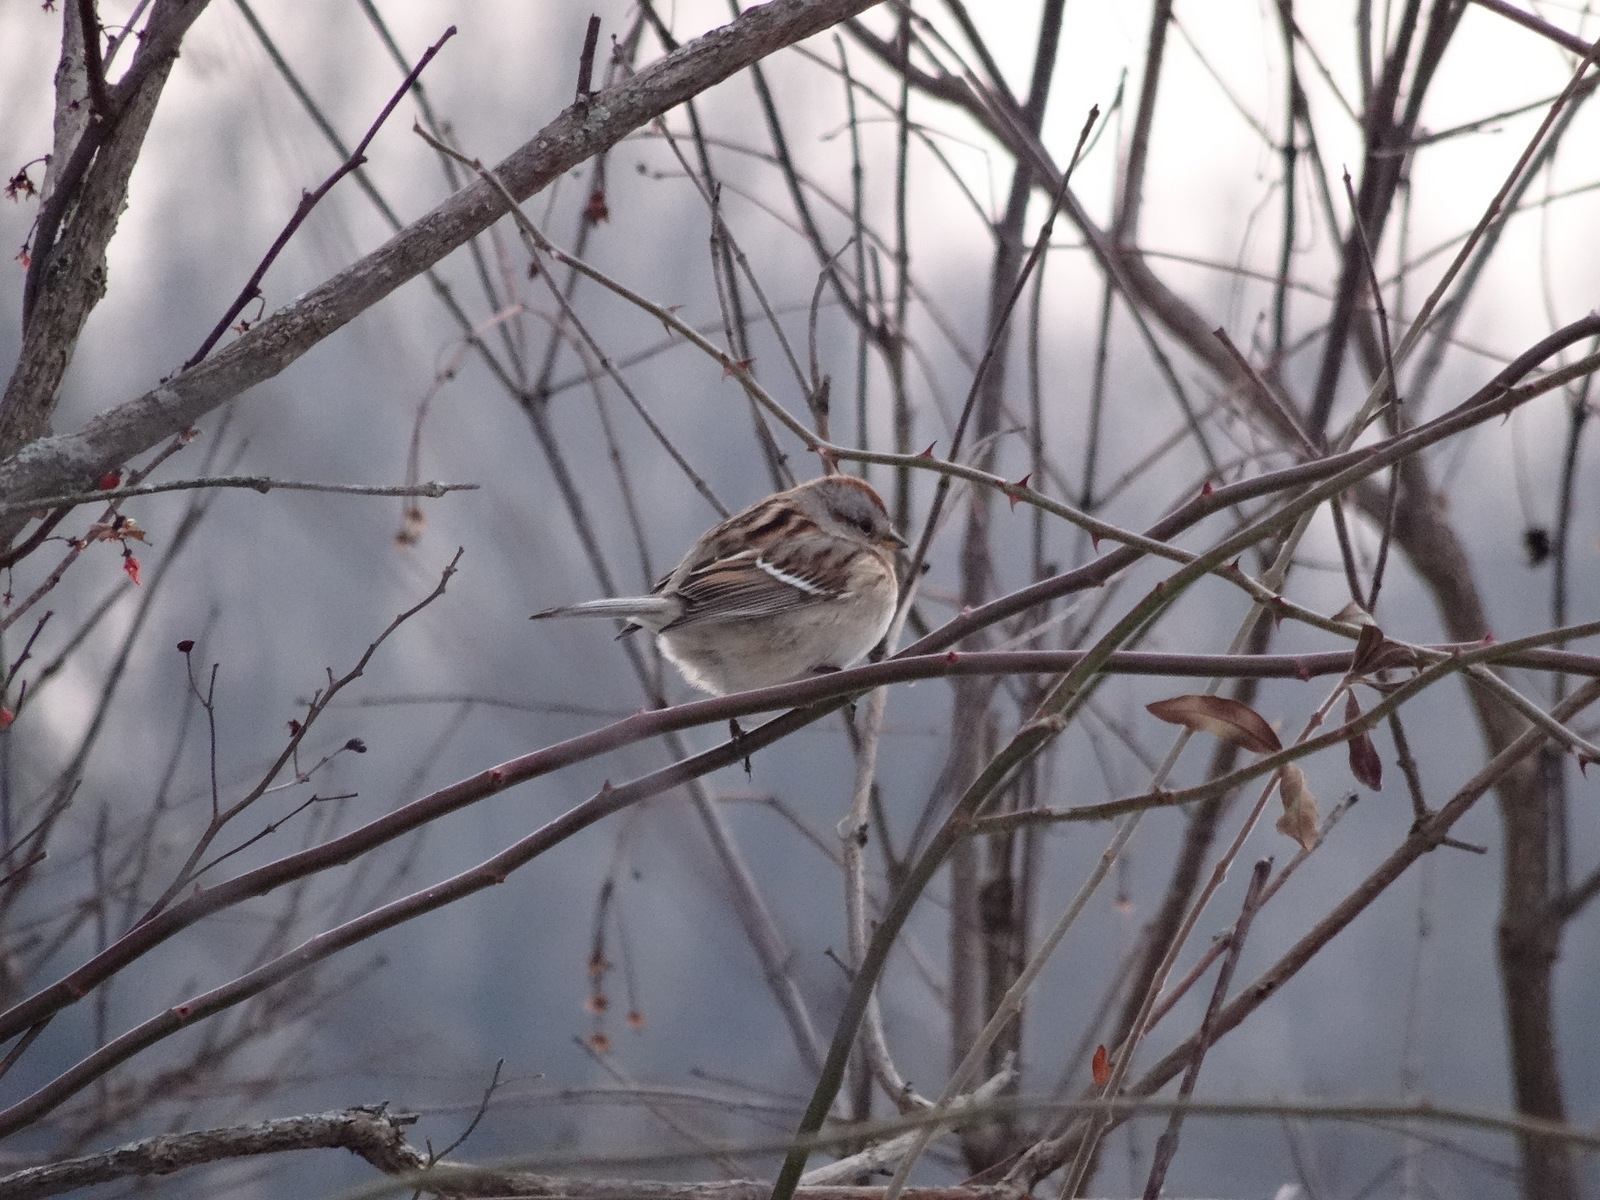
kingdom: Animalia
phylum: Chordata
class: Aves
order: Passeriformes
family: Passerellidae
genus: Spizelloides
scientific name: Spizelloides arborea
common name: American tree sparrow
